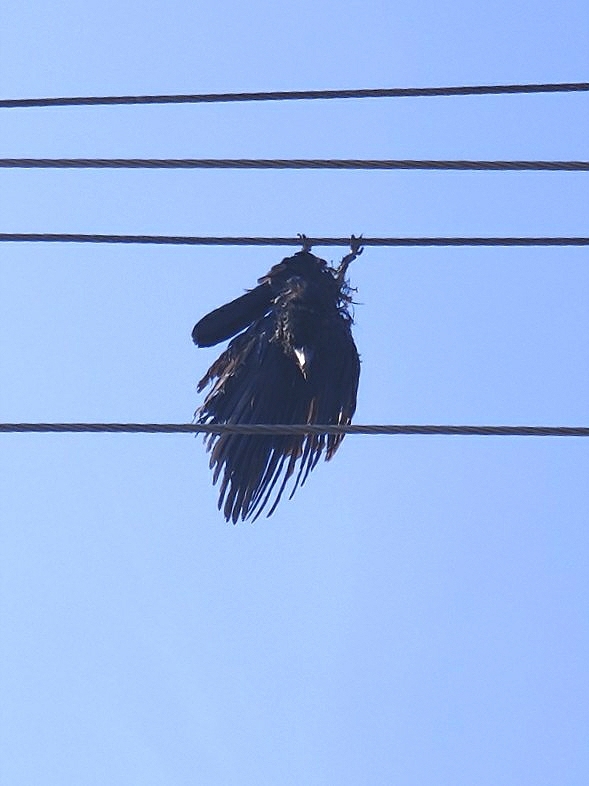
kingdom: Animalia
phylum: Chordata
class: Aves
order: Passeriformes
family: Corvidae
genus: Corvus
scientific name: Corvus macrorhynchos
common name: Large-billed crow
